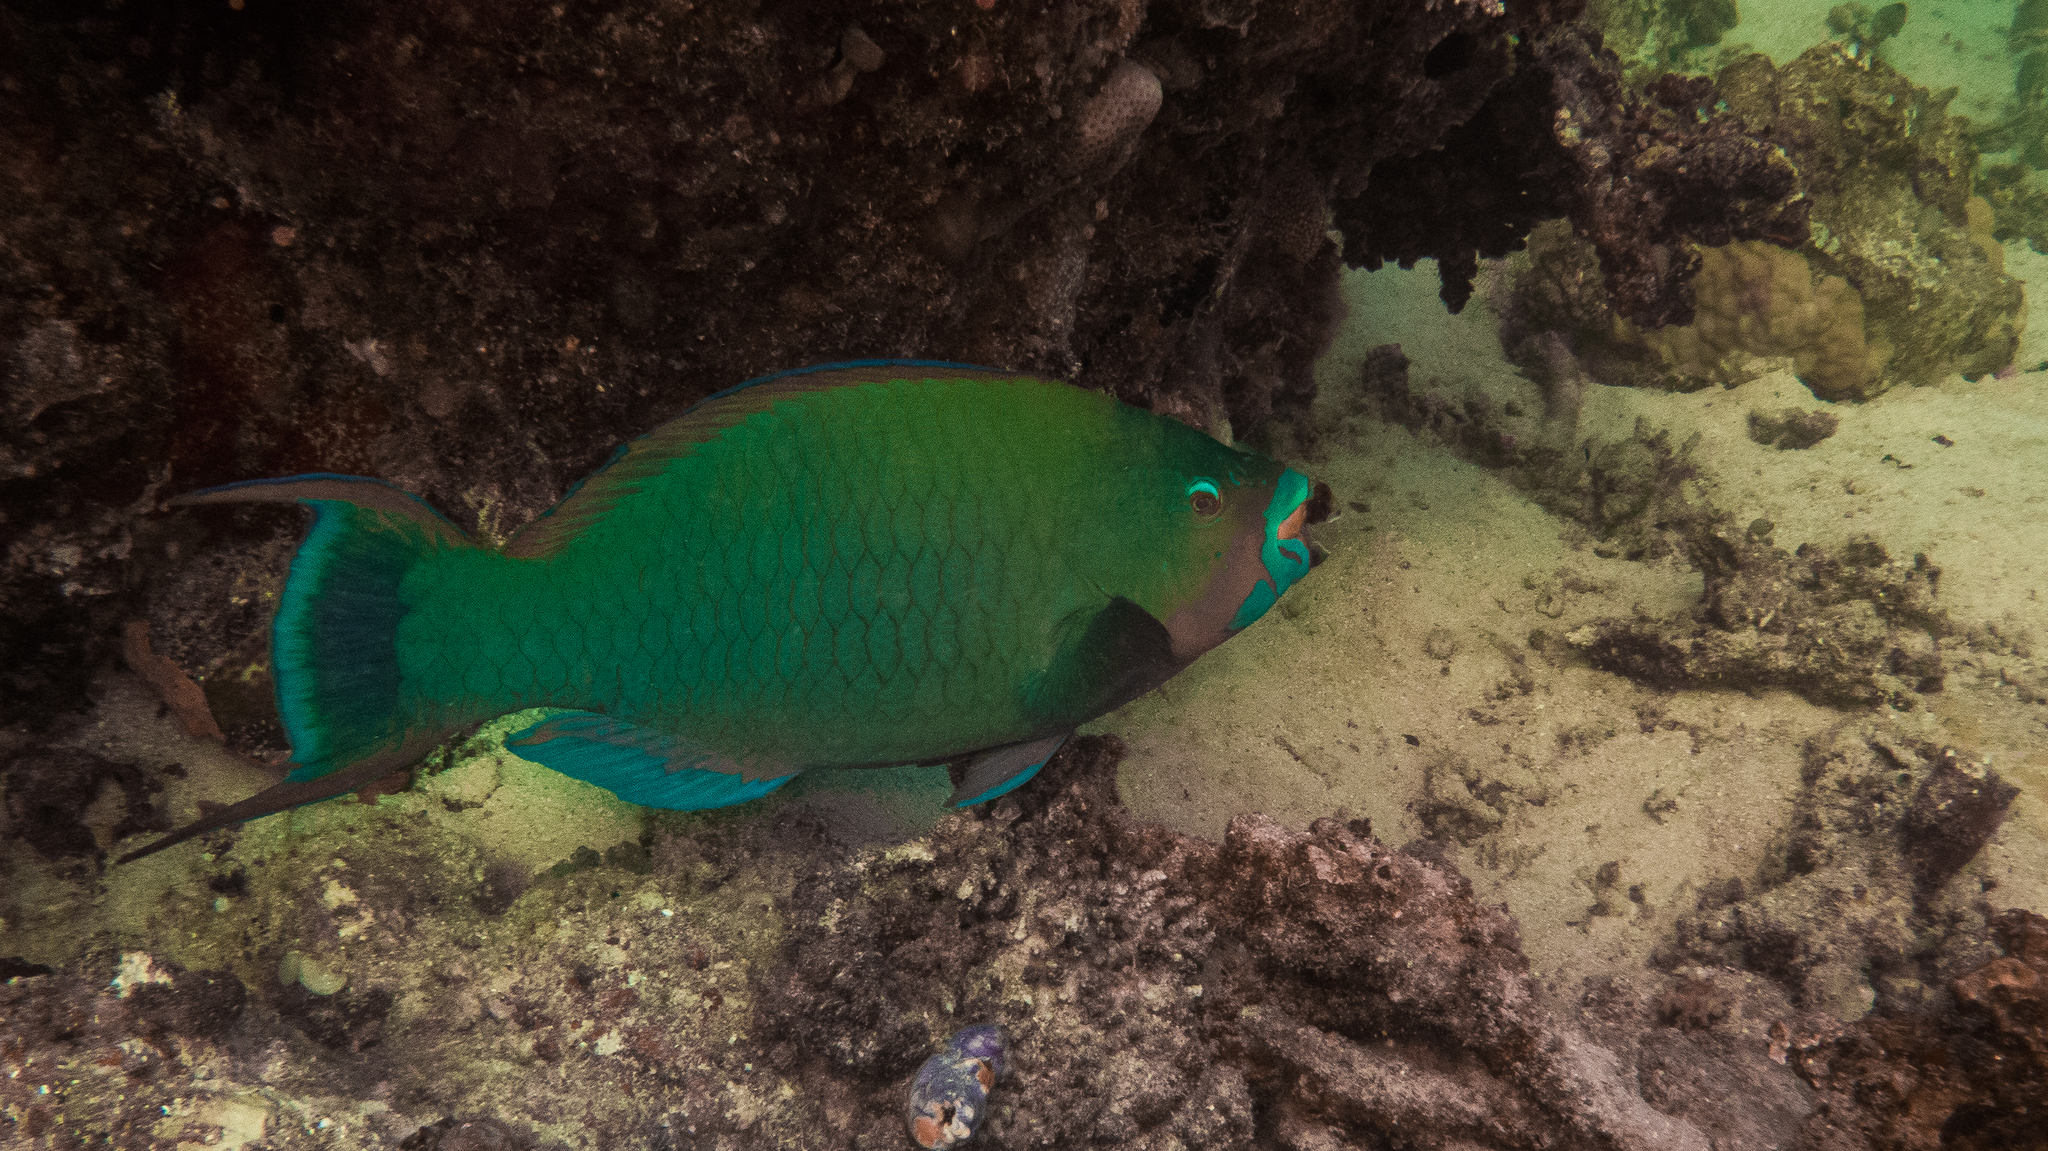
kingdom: Animalia
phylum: Chordata
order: Perciformes
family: Scaridae
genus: Scarus
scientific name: Scarus altipinnis
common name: Minifin parrotfish
